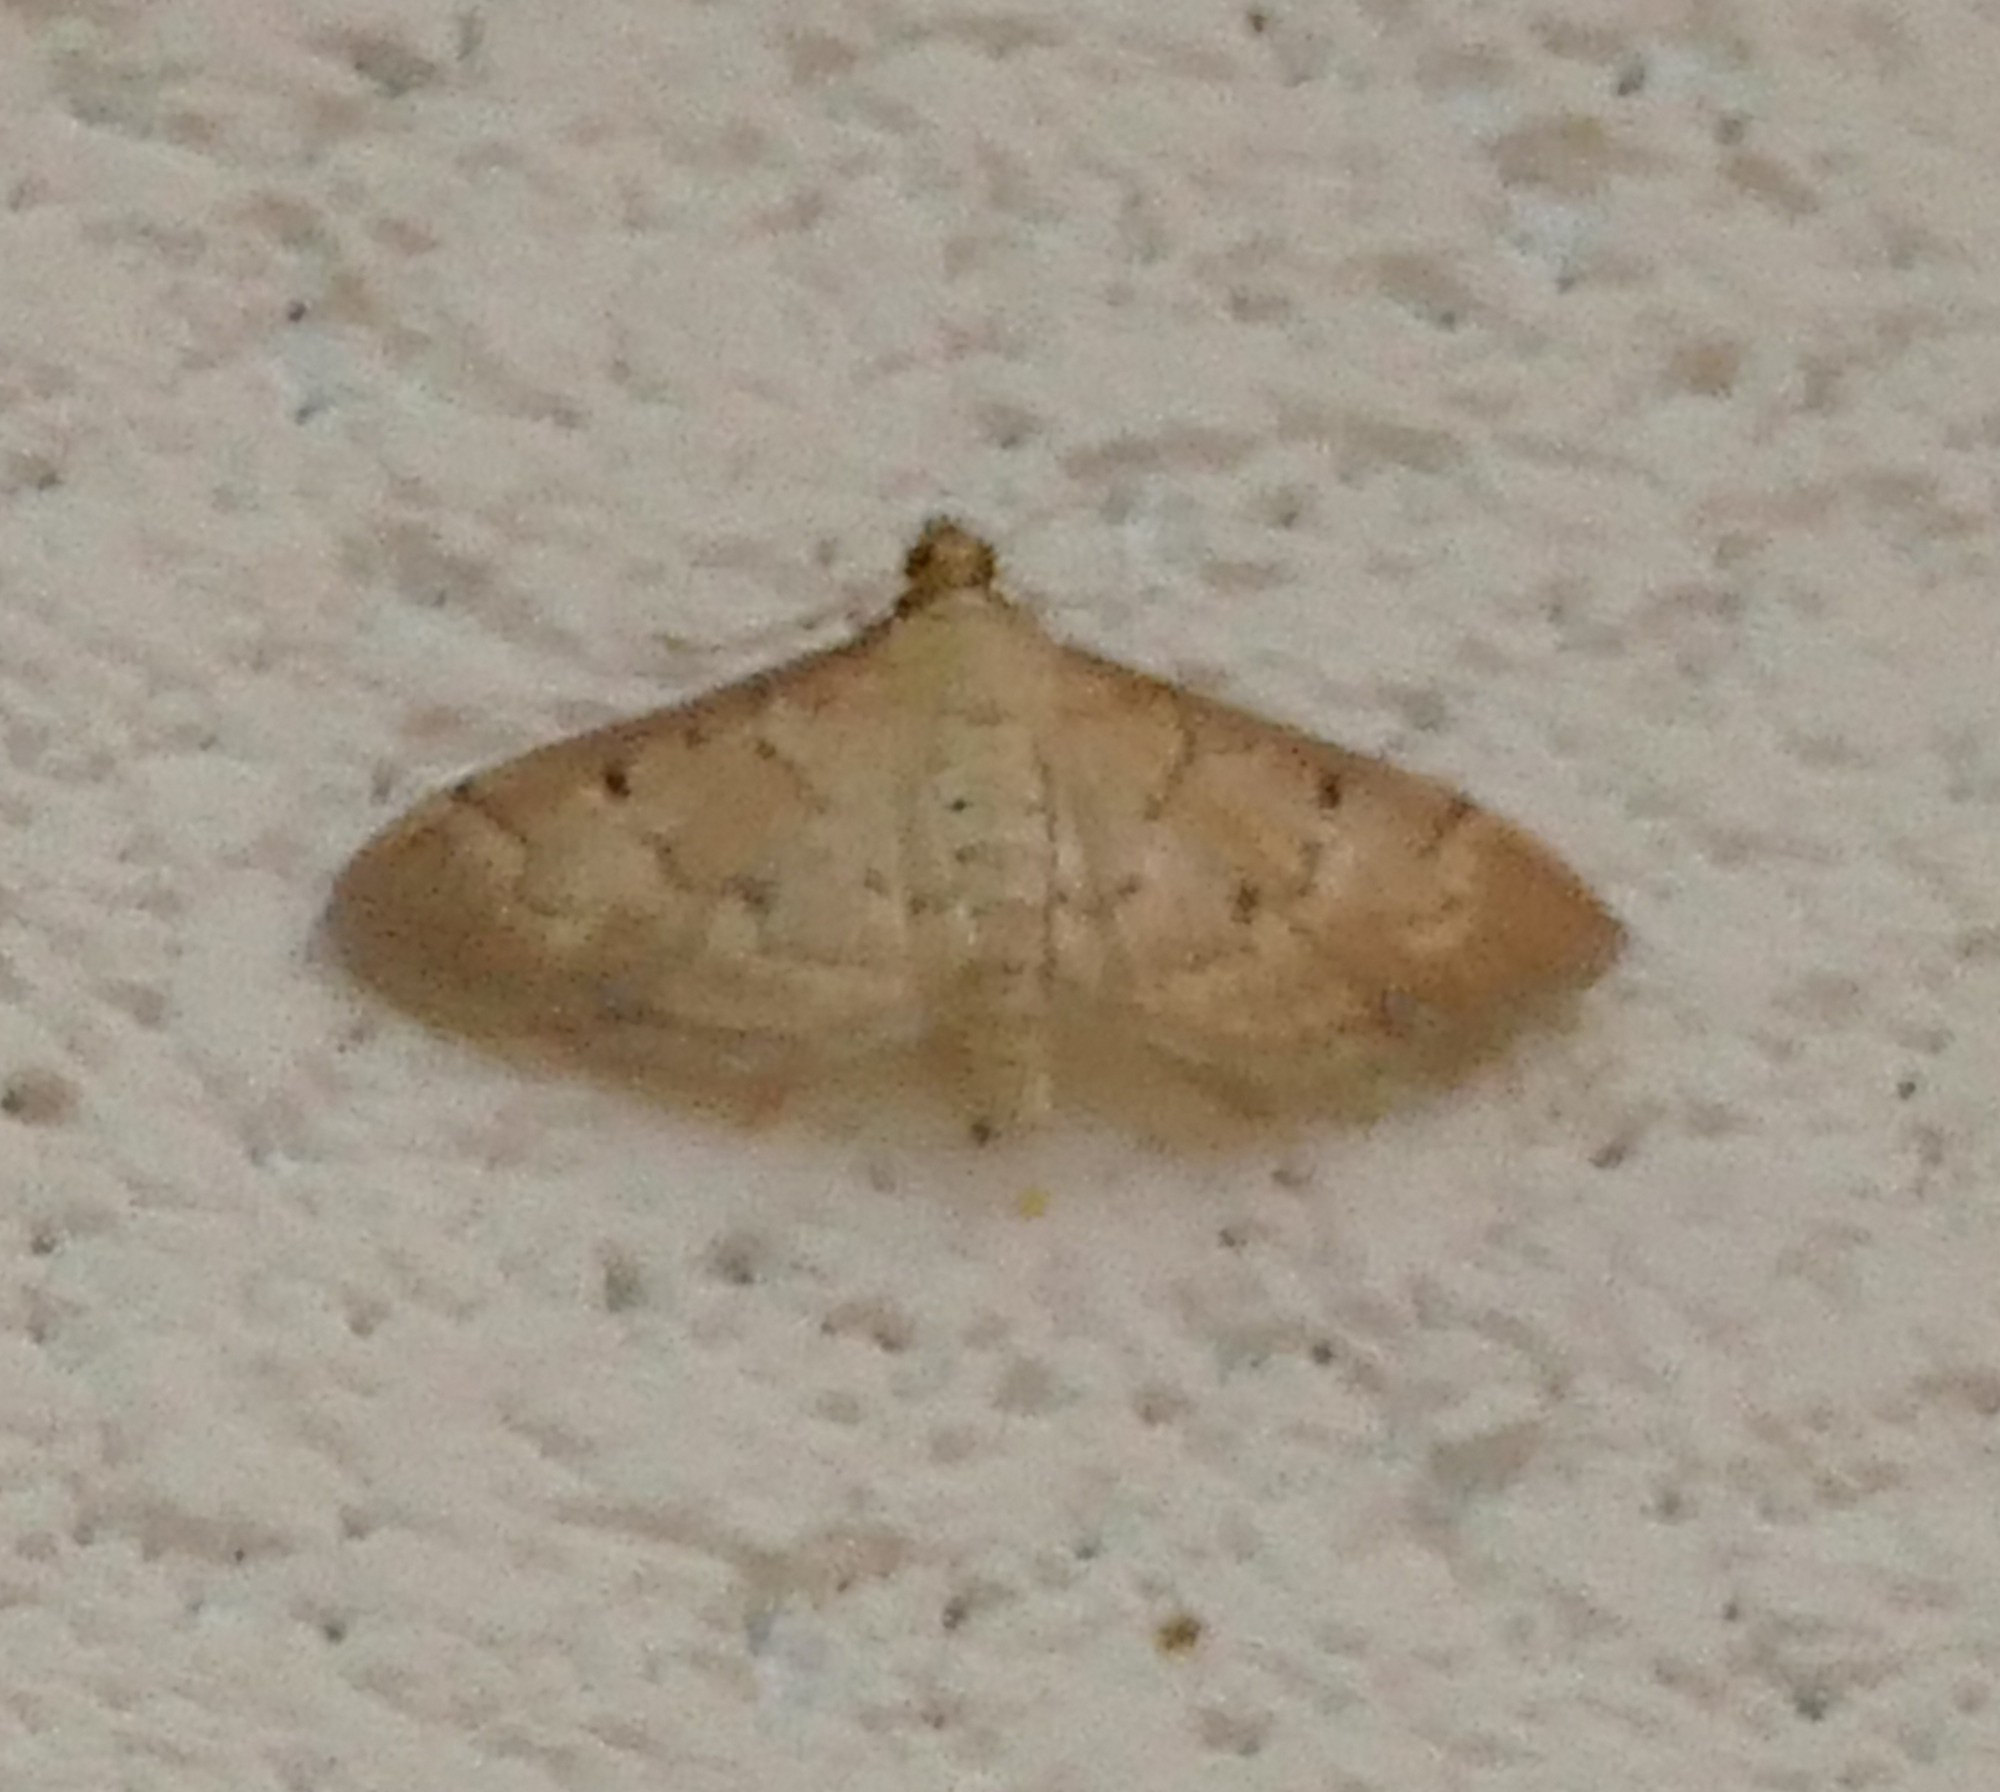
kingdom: Animalia
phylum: Arthropoda
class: Insecta
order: Lepidoptera
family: Crambidae
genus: Herpetogramma
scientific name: Herpetogramma bipunctalis
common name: Southern beet webworm
